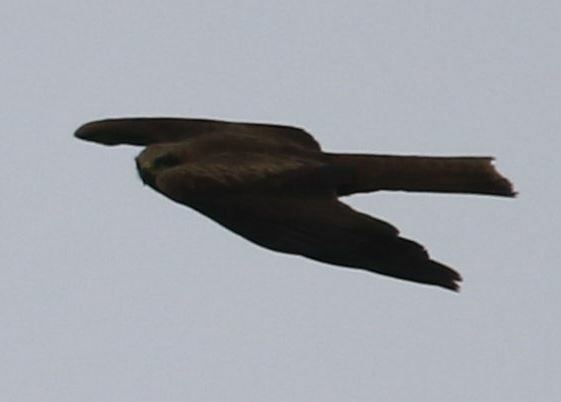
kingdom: Animalia
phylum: Chordata
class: Aves
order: Accipitriformes
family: Accipitridae
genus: Milvus
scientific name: Milvus migrans
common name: Black kite
